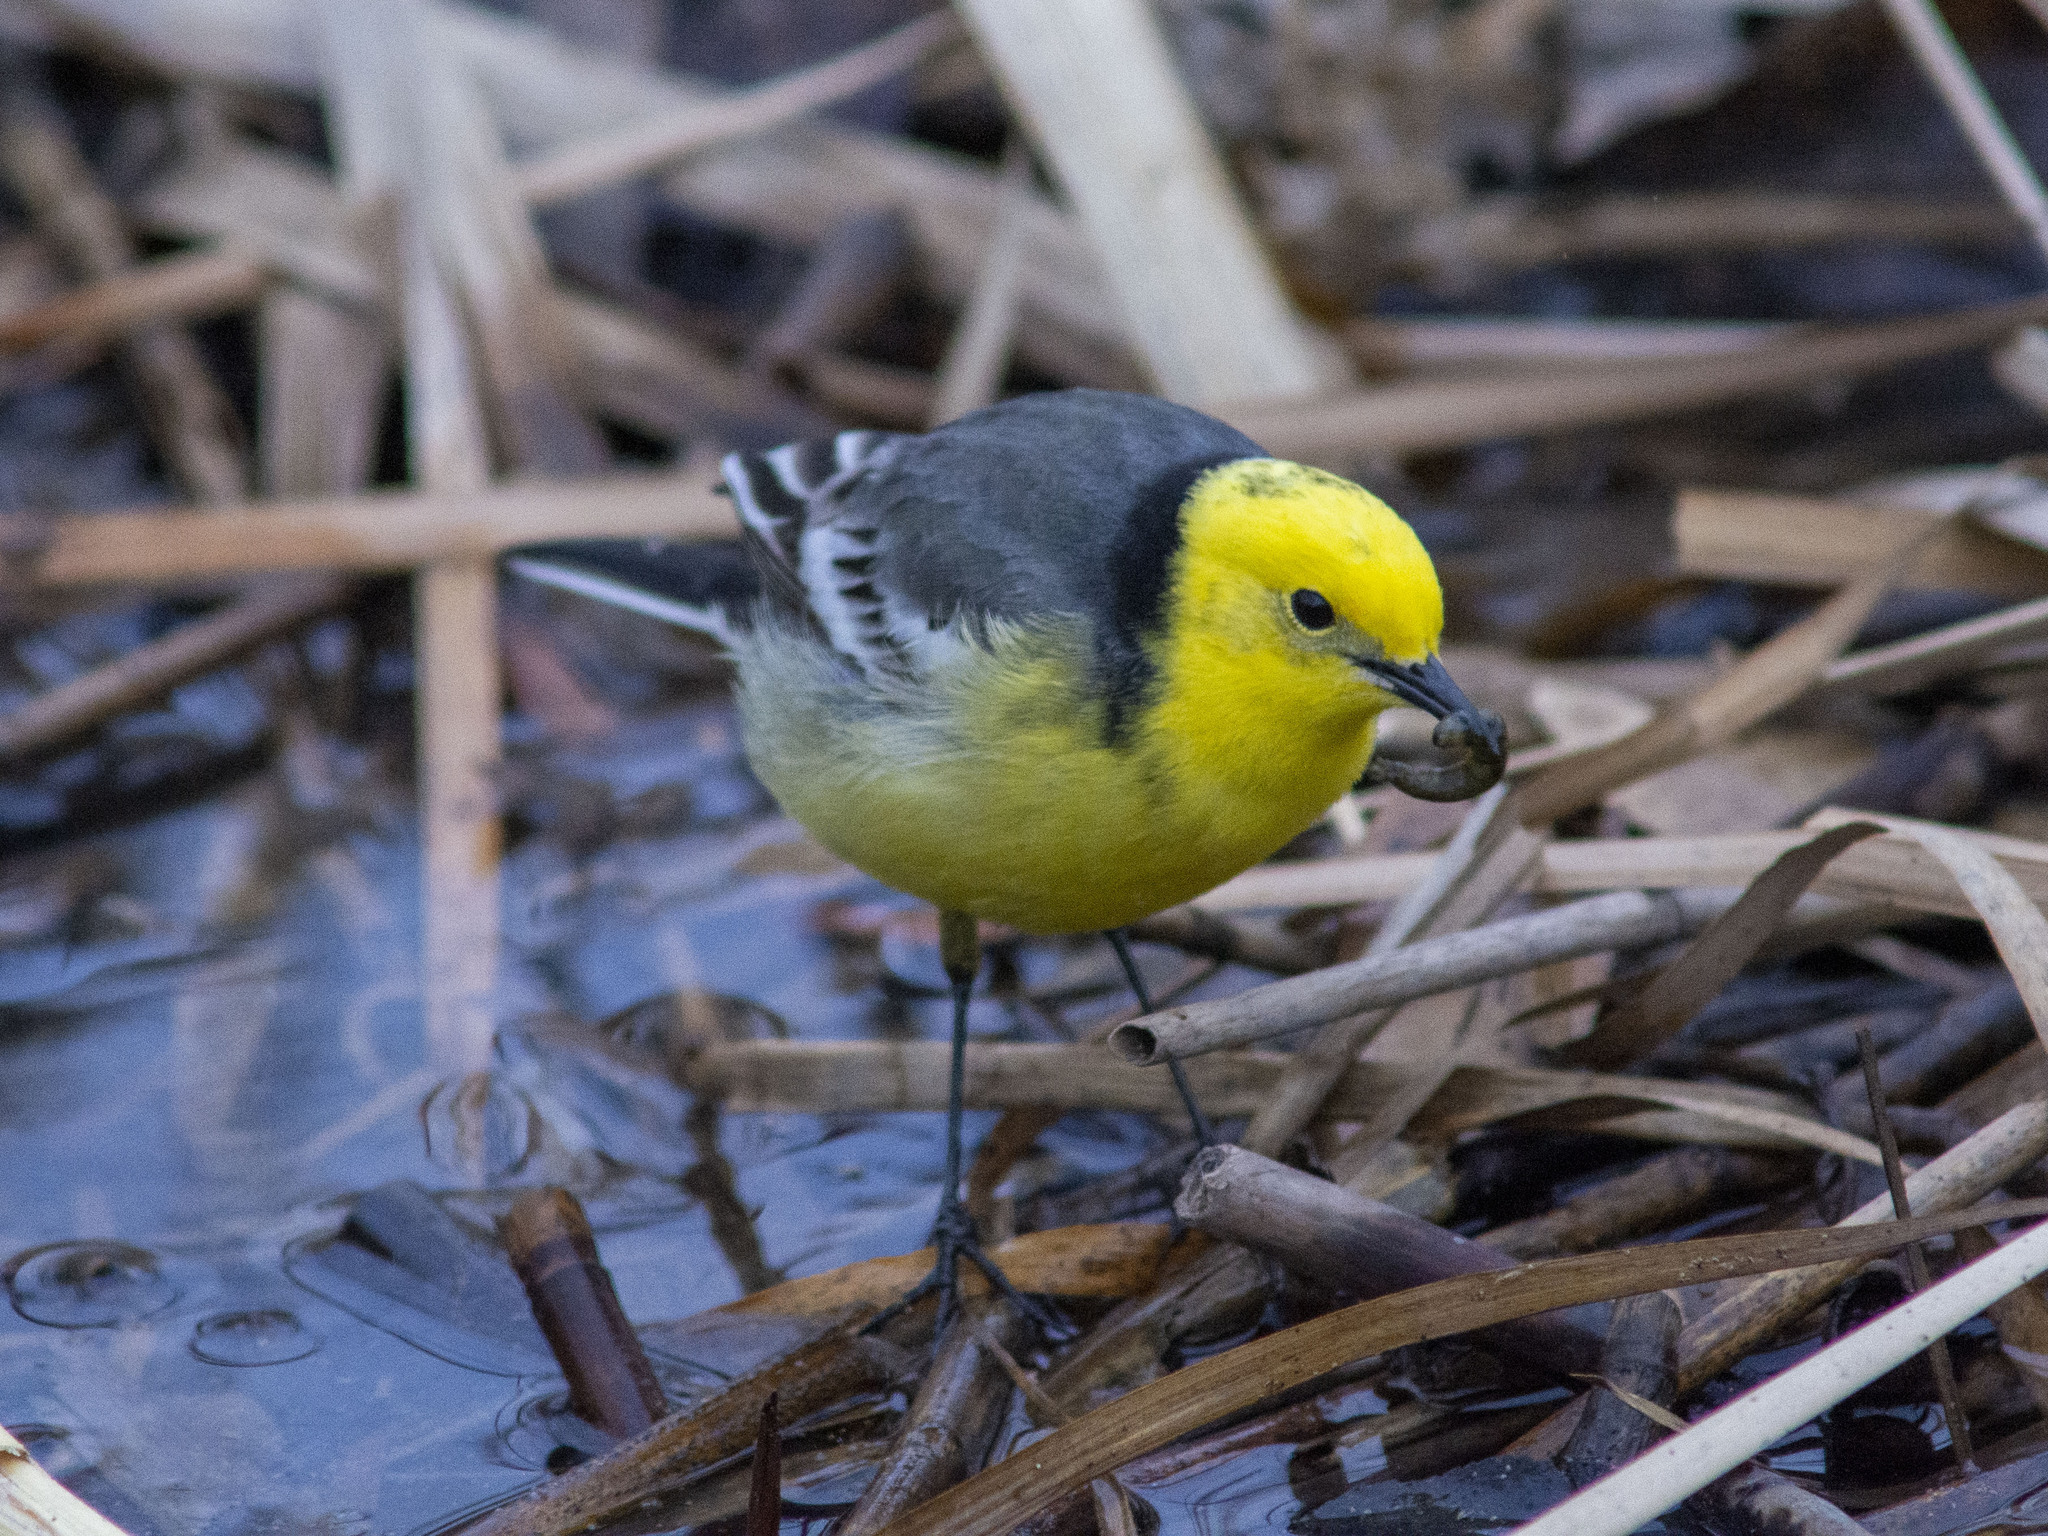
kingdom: Animalia
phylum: Chordata
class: Aves
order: Passeriformes
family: Motacillidae
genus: Motacilla
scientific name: Motacilla citreola
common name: Citrine wagtail
